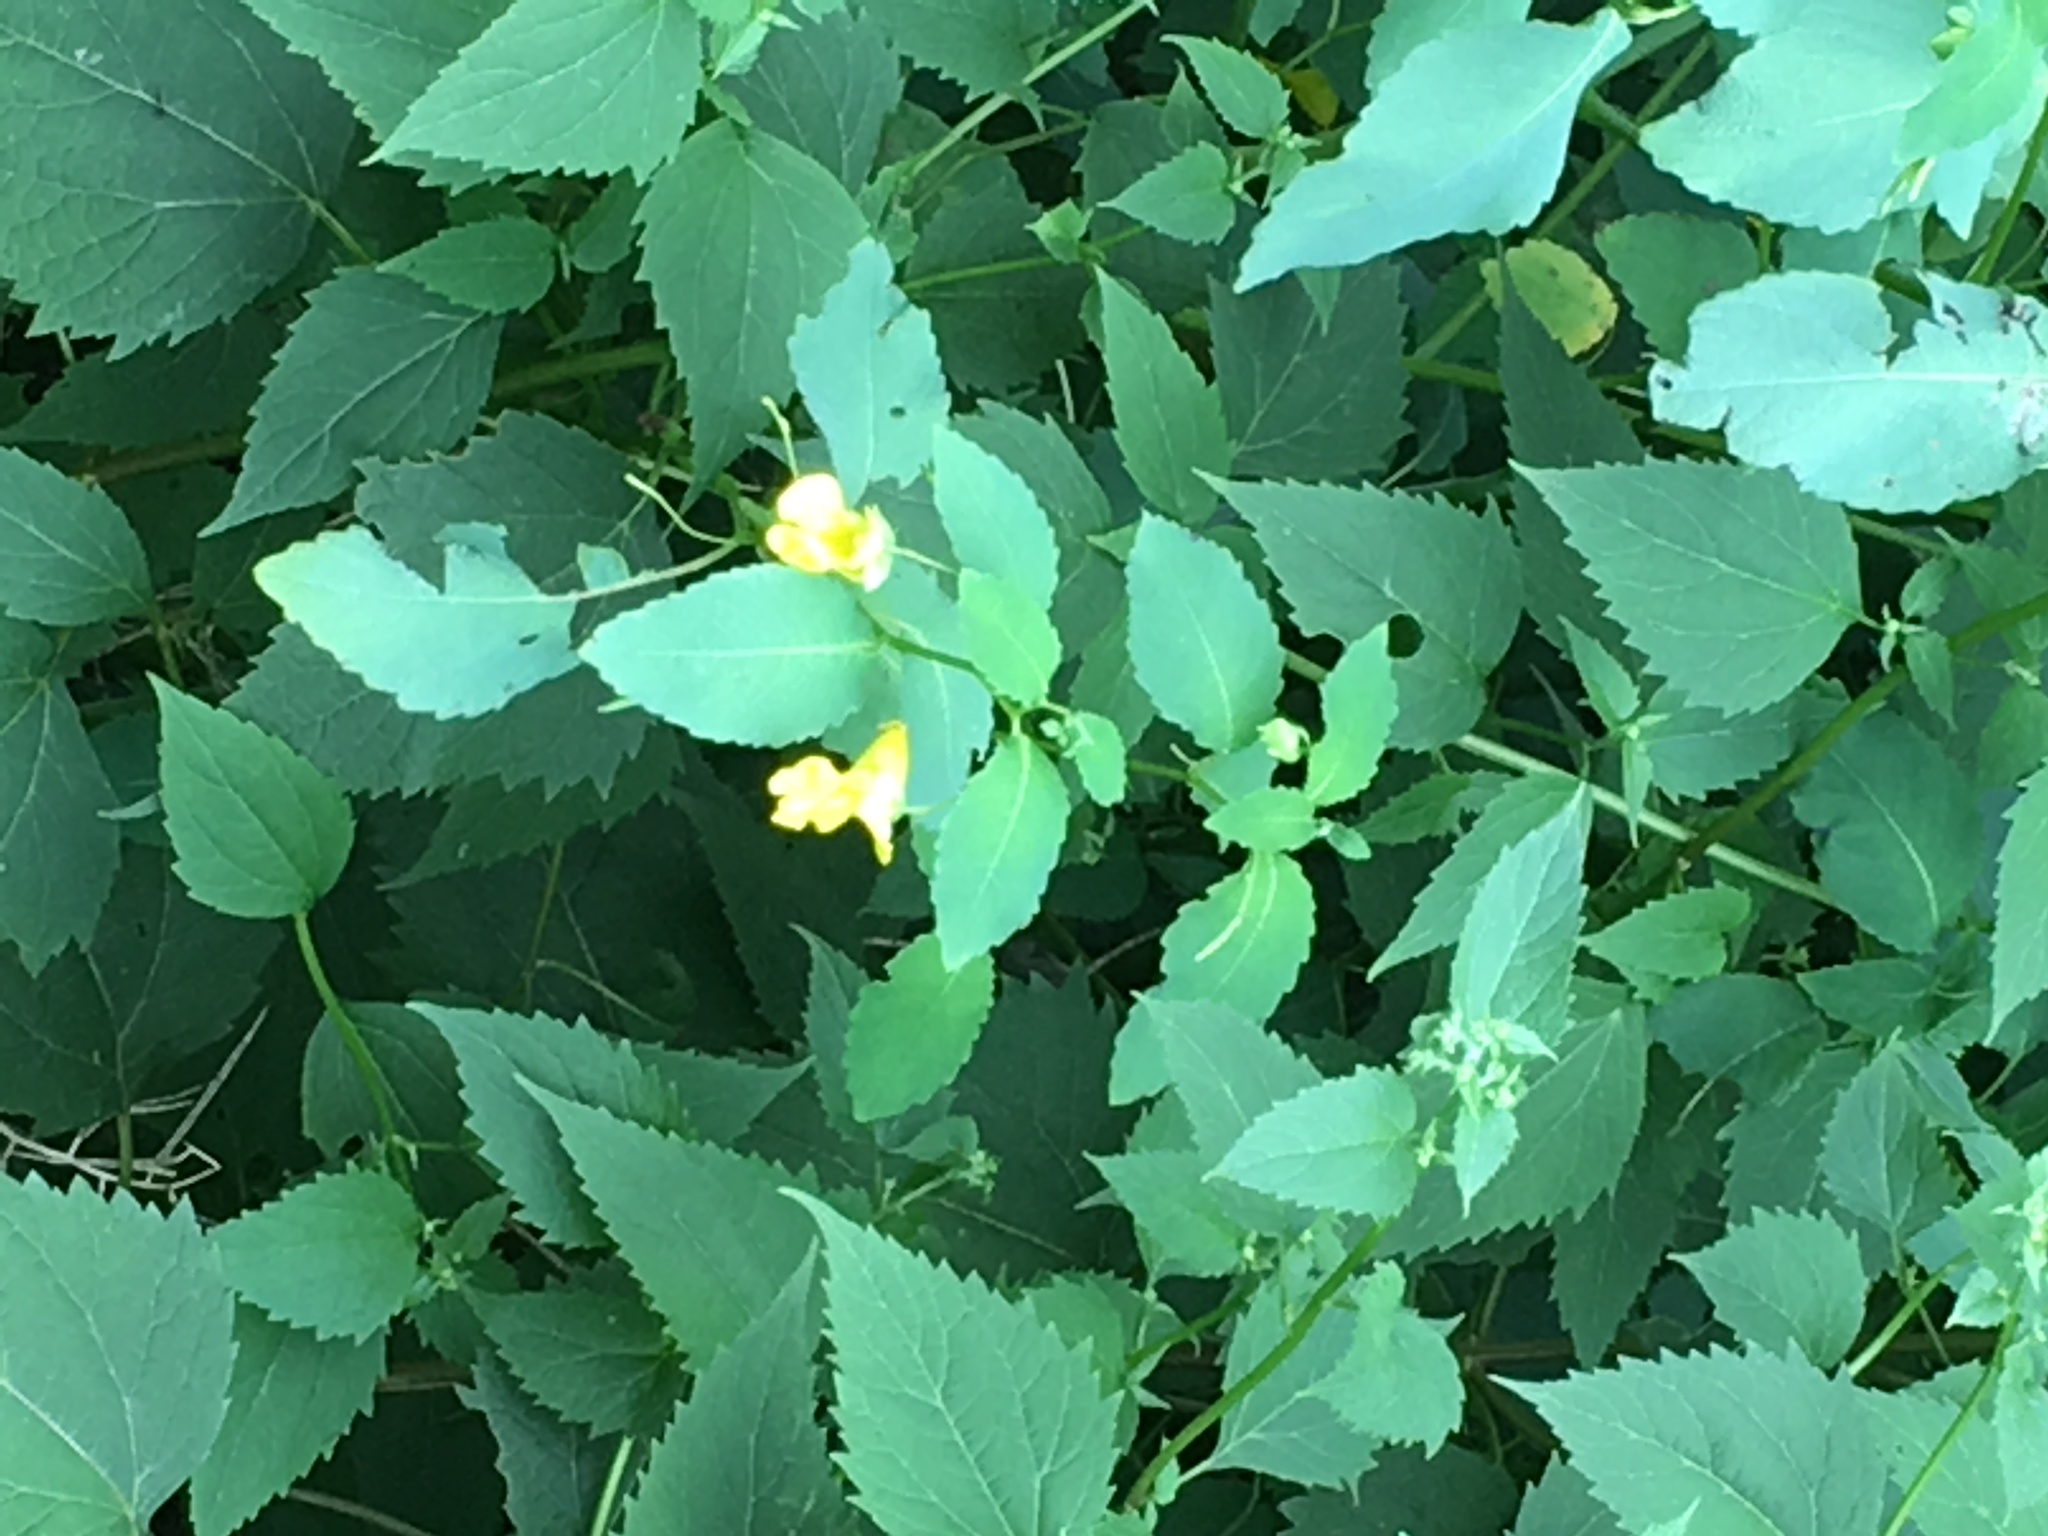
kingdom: Plantae
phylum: Tracheophyta
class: Magnoliopsida
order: Ericales
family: Balsaminaceae
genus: Impatiens
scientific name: Impatiens pallida
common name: Pale snapweed
